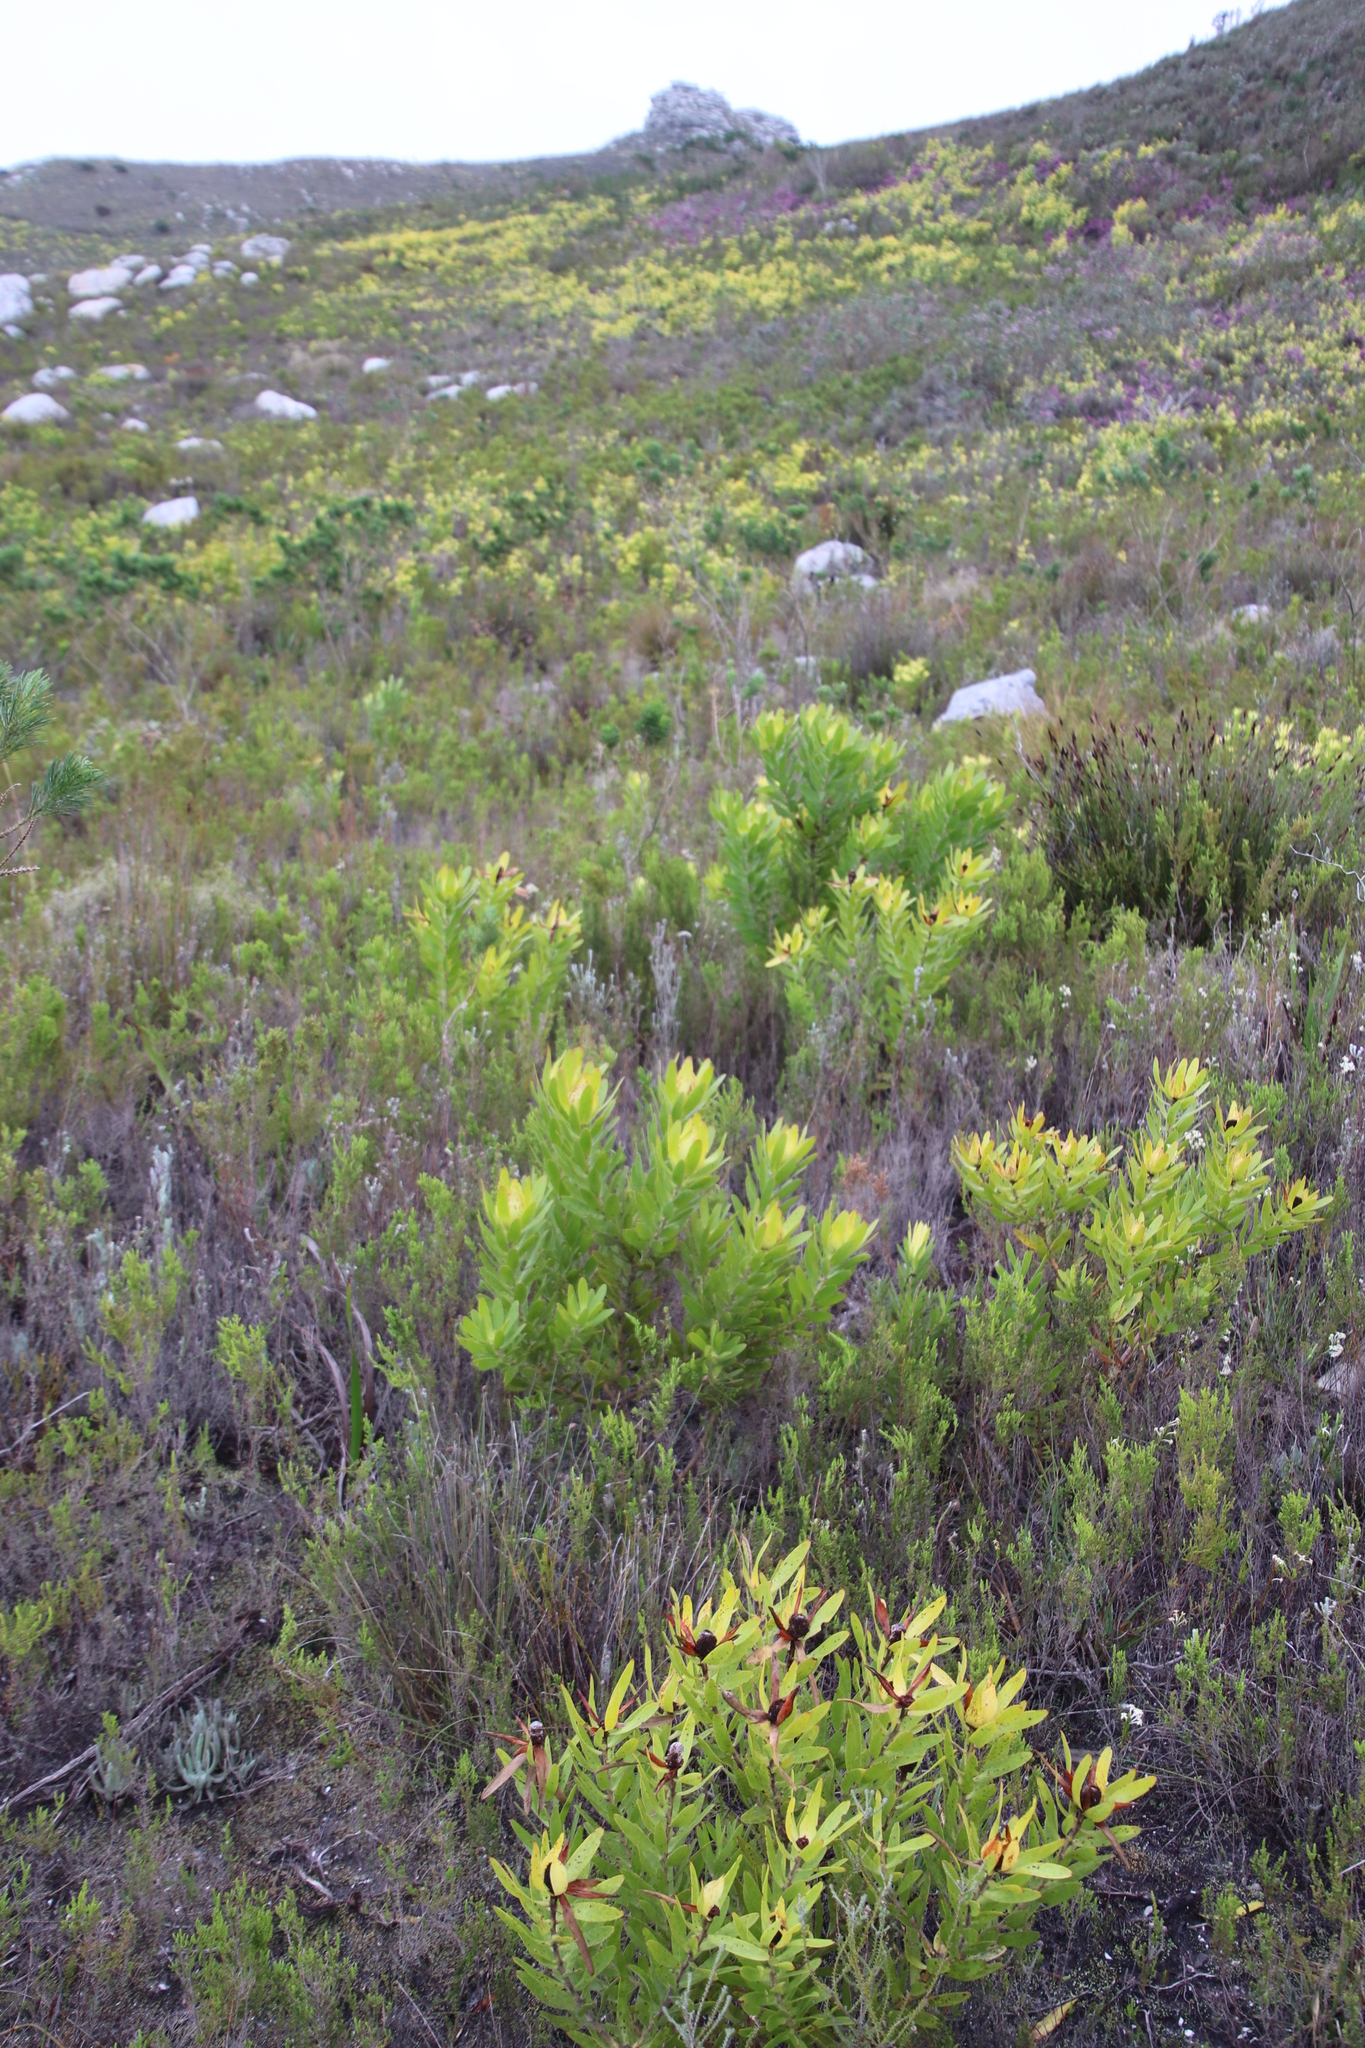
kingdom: Plantae
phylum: Tracheophyta
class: Magnoliopsida
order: Proteales
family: Proteaceae
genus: Leucadendron
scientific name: Leucadendron laureolum
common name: Golden sunshinebush
